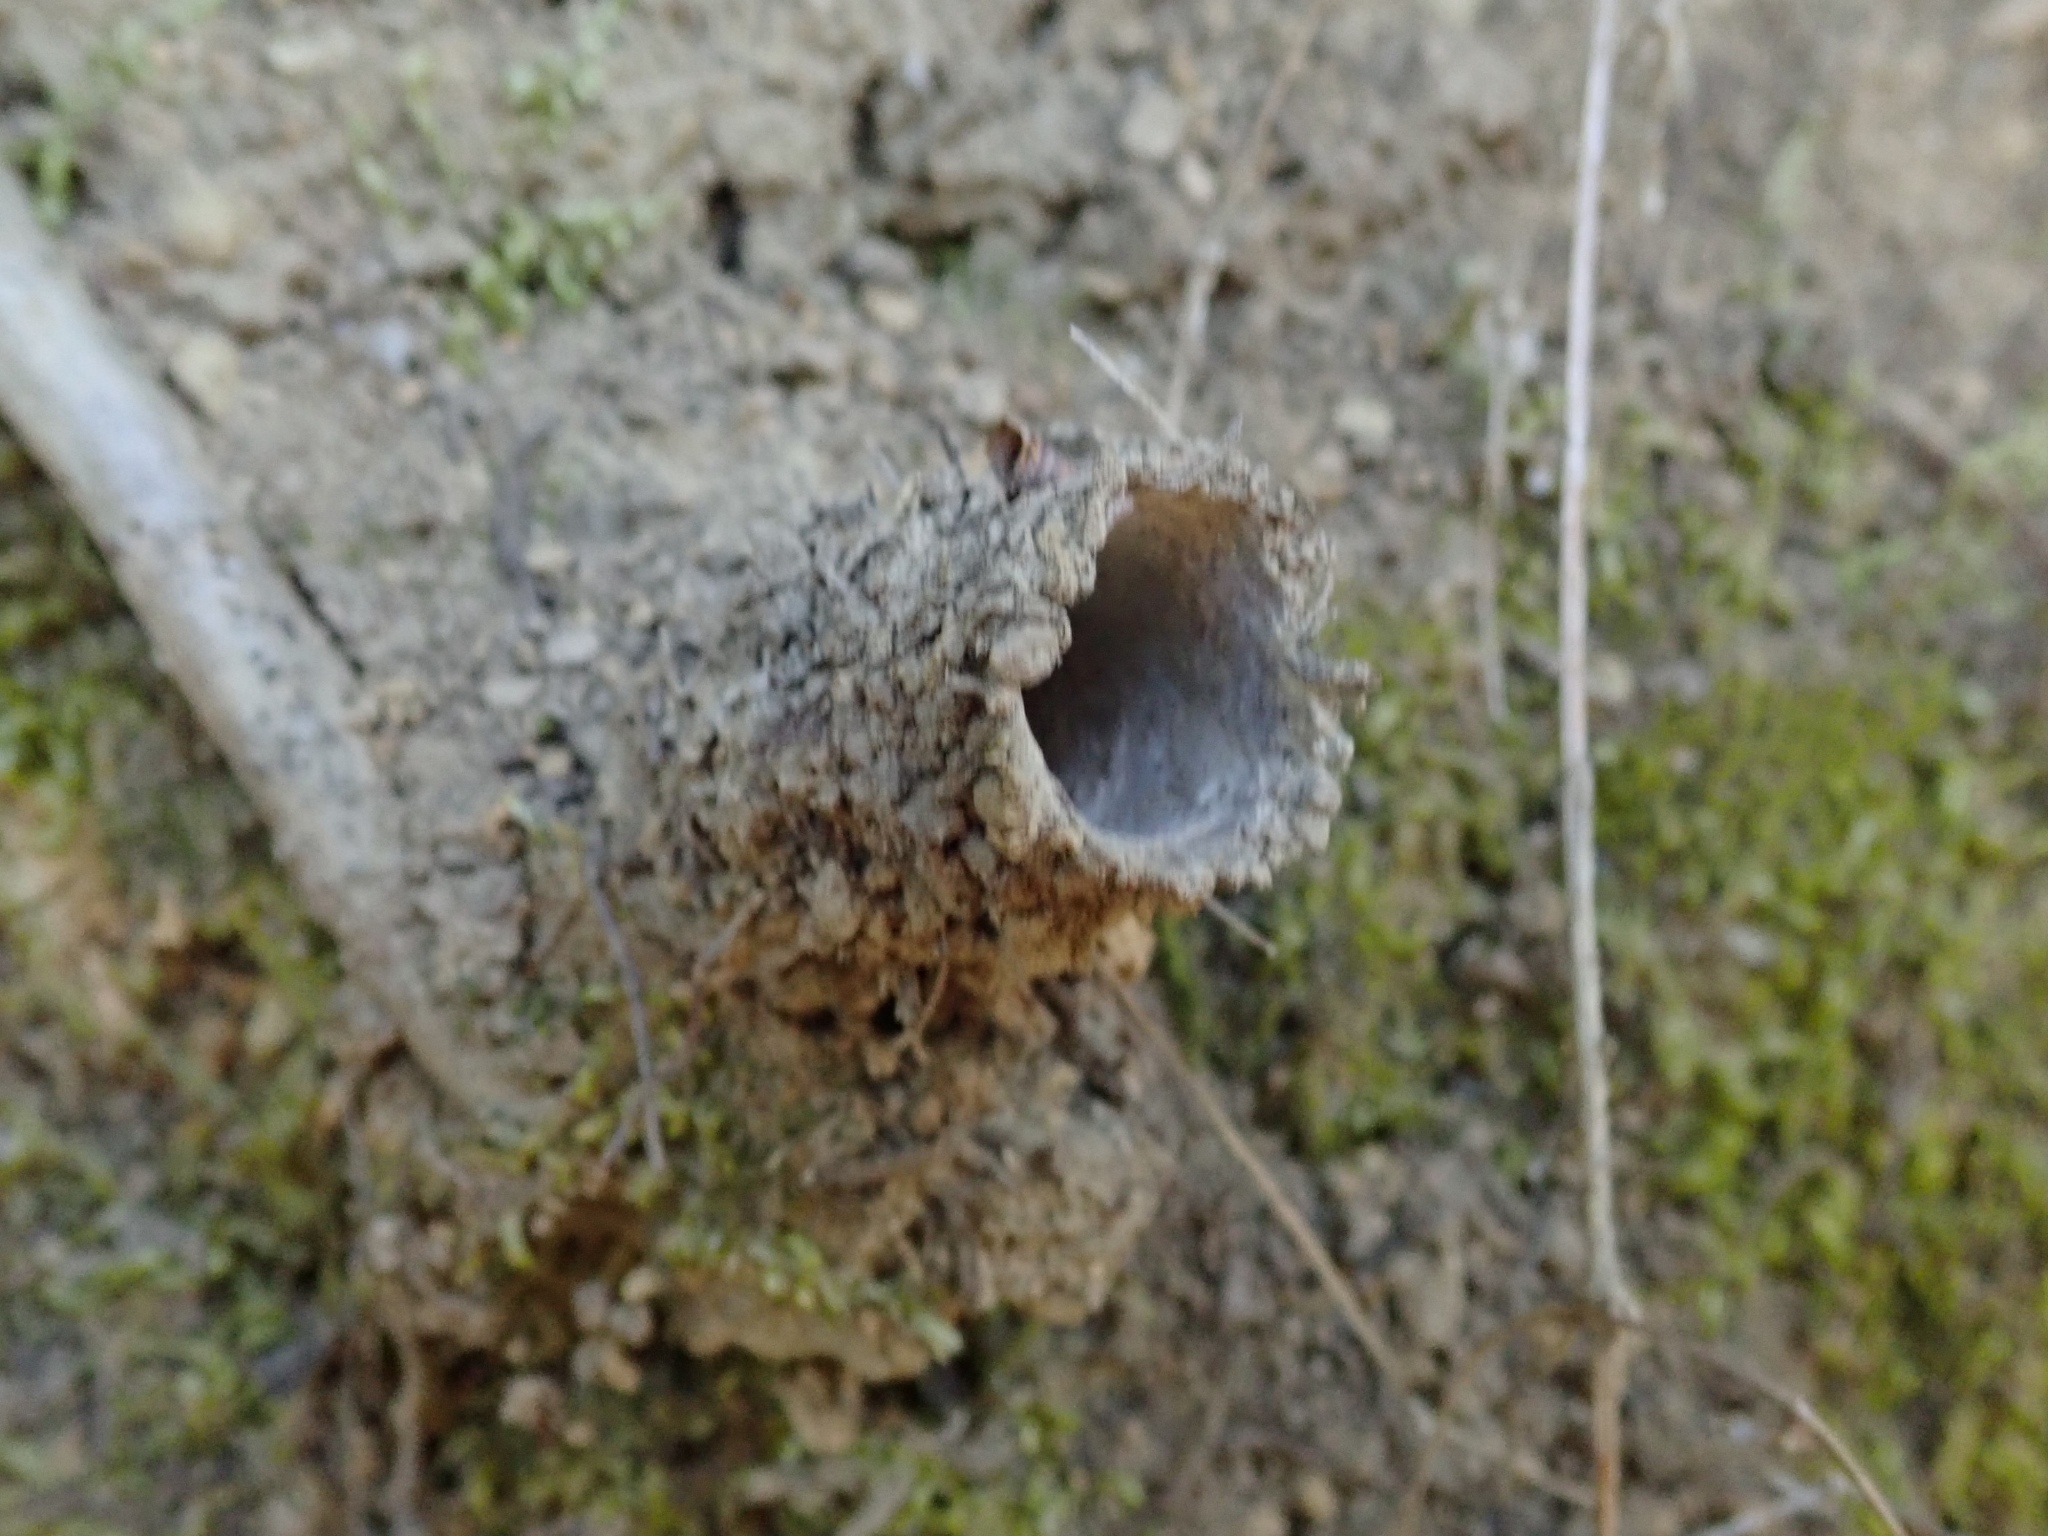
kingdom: Animalia
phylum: Arthropoda
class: Arachnida
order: Araneae
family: Antrodiaetidae
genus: Atypoides
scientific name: Atypoides riversi
